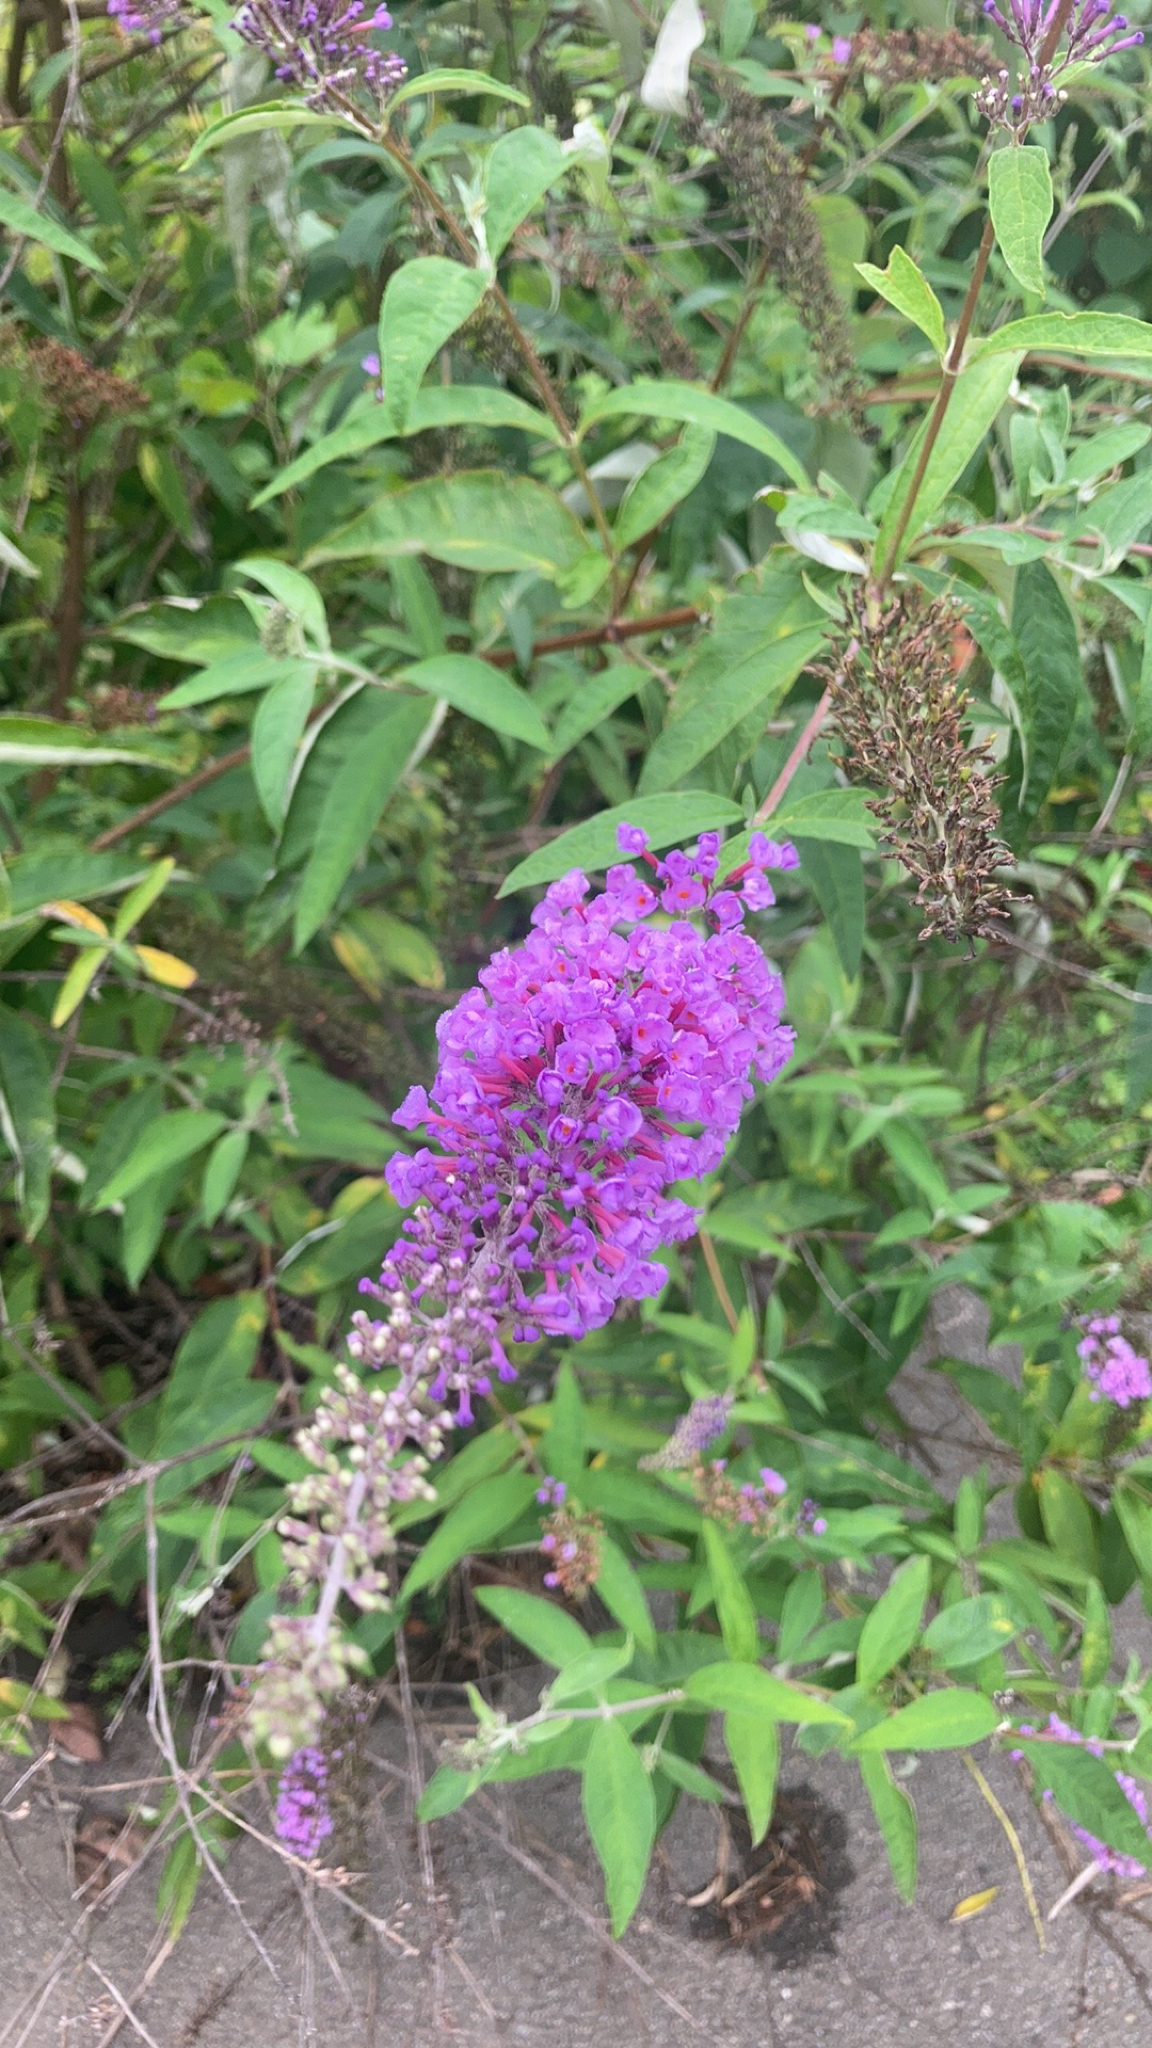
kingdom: Plantae
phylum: Tracheophyta
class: Magnoliopsida
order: Lamiales
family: Scrophulariaceae
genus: Buddleja
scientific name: Buddleja davidii
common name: Butterfly-bush
